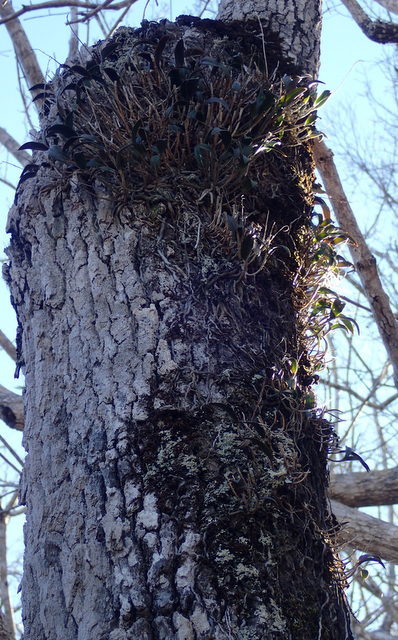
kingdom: Plantae
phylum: Tracheophyta
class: Liliopsida
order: Asparagales
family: Orchidaceae
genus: Epidendrum
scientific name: Epidendrum conopseum
